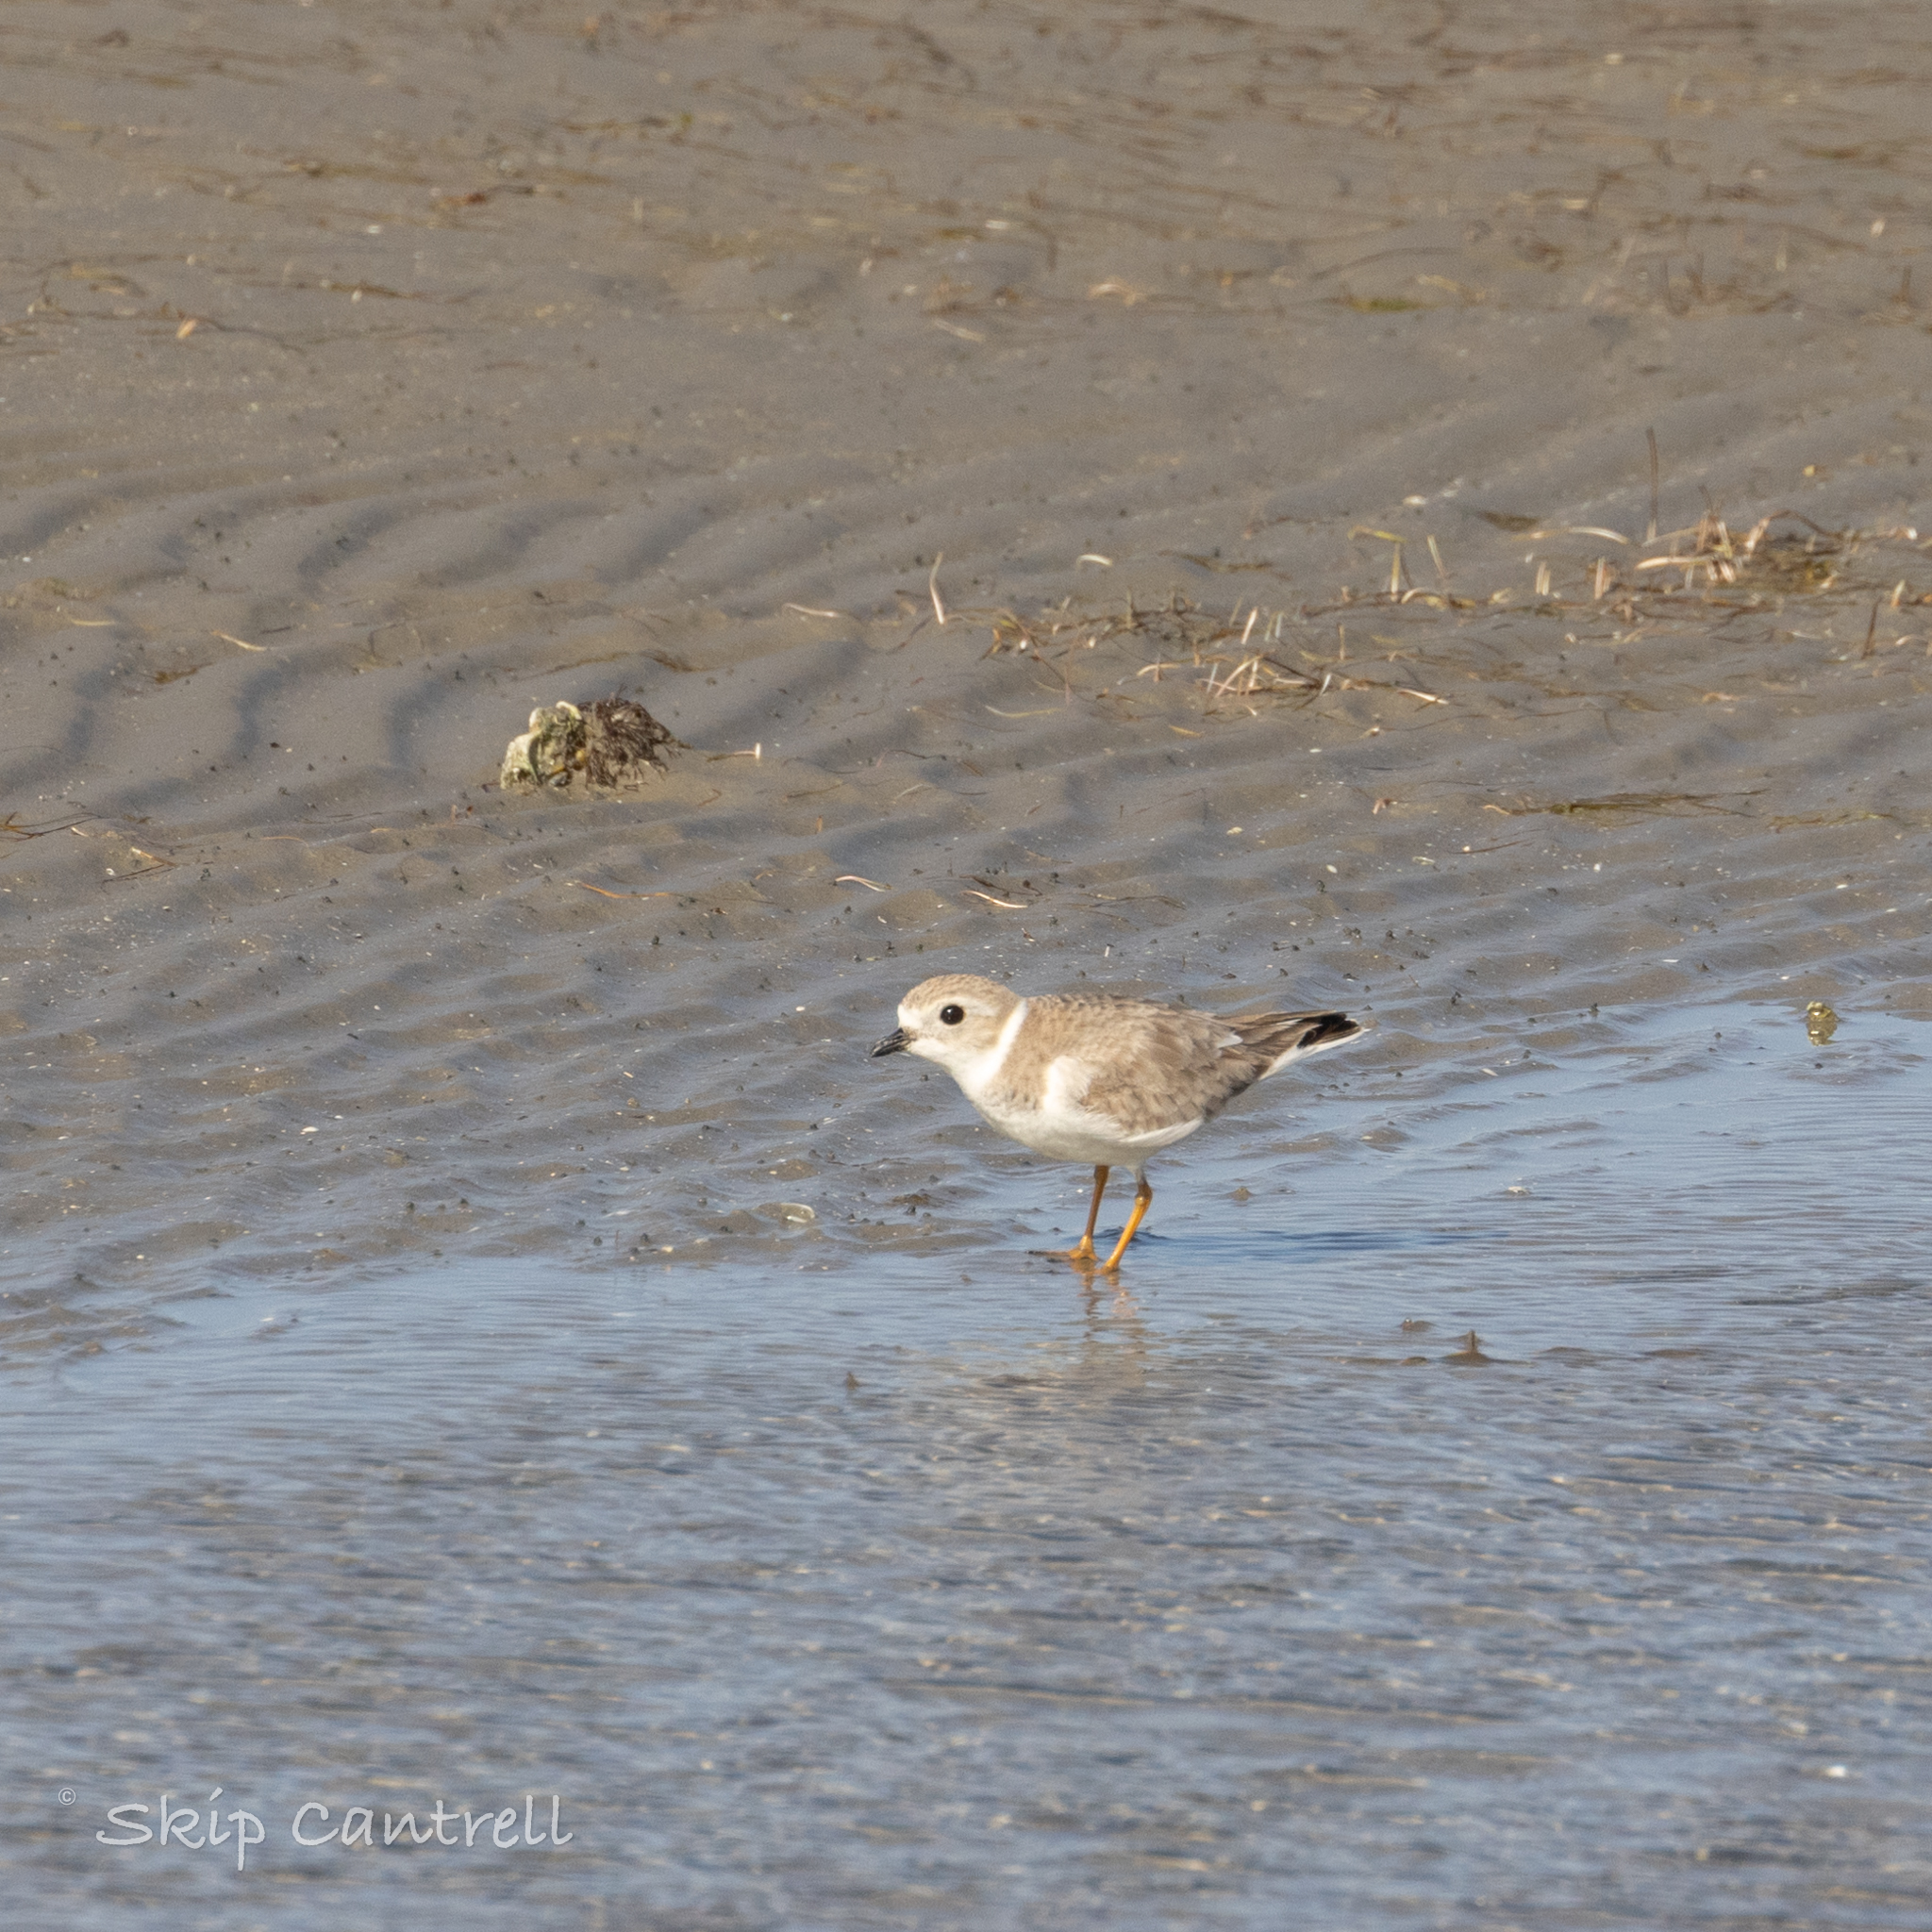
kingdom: Animalia
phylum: Chordata
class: Aves
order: Charadriiformes
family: Charadriidae
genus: Charadrius
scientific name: Charadrius melodus
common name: Piping plover
